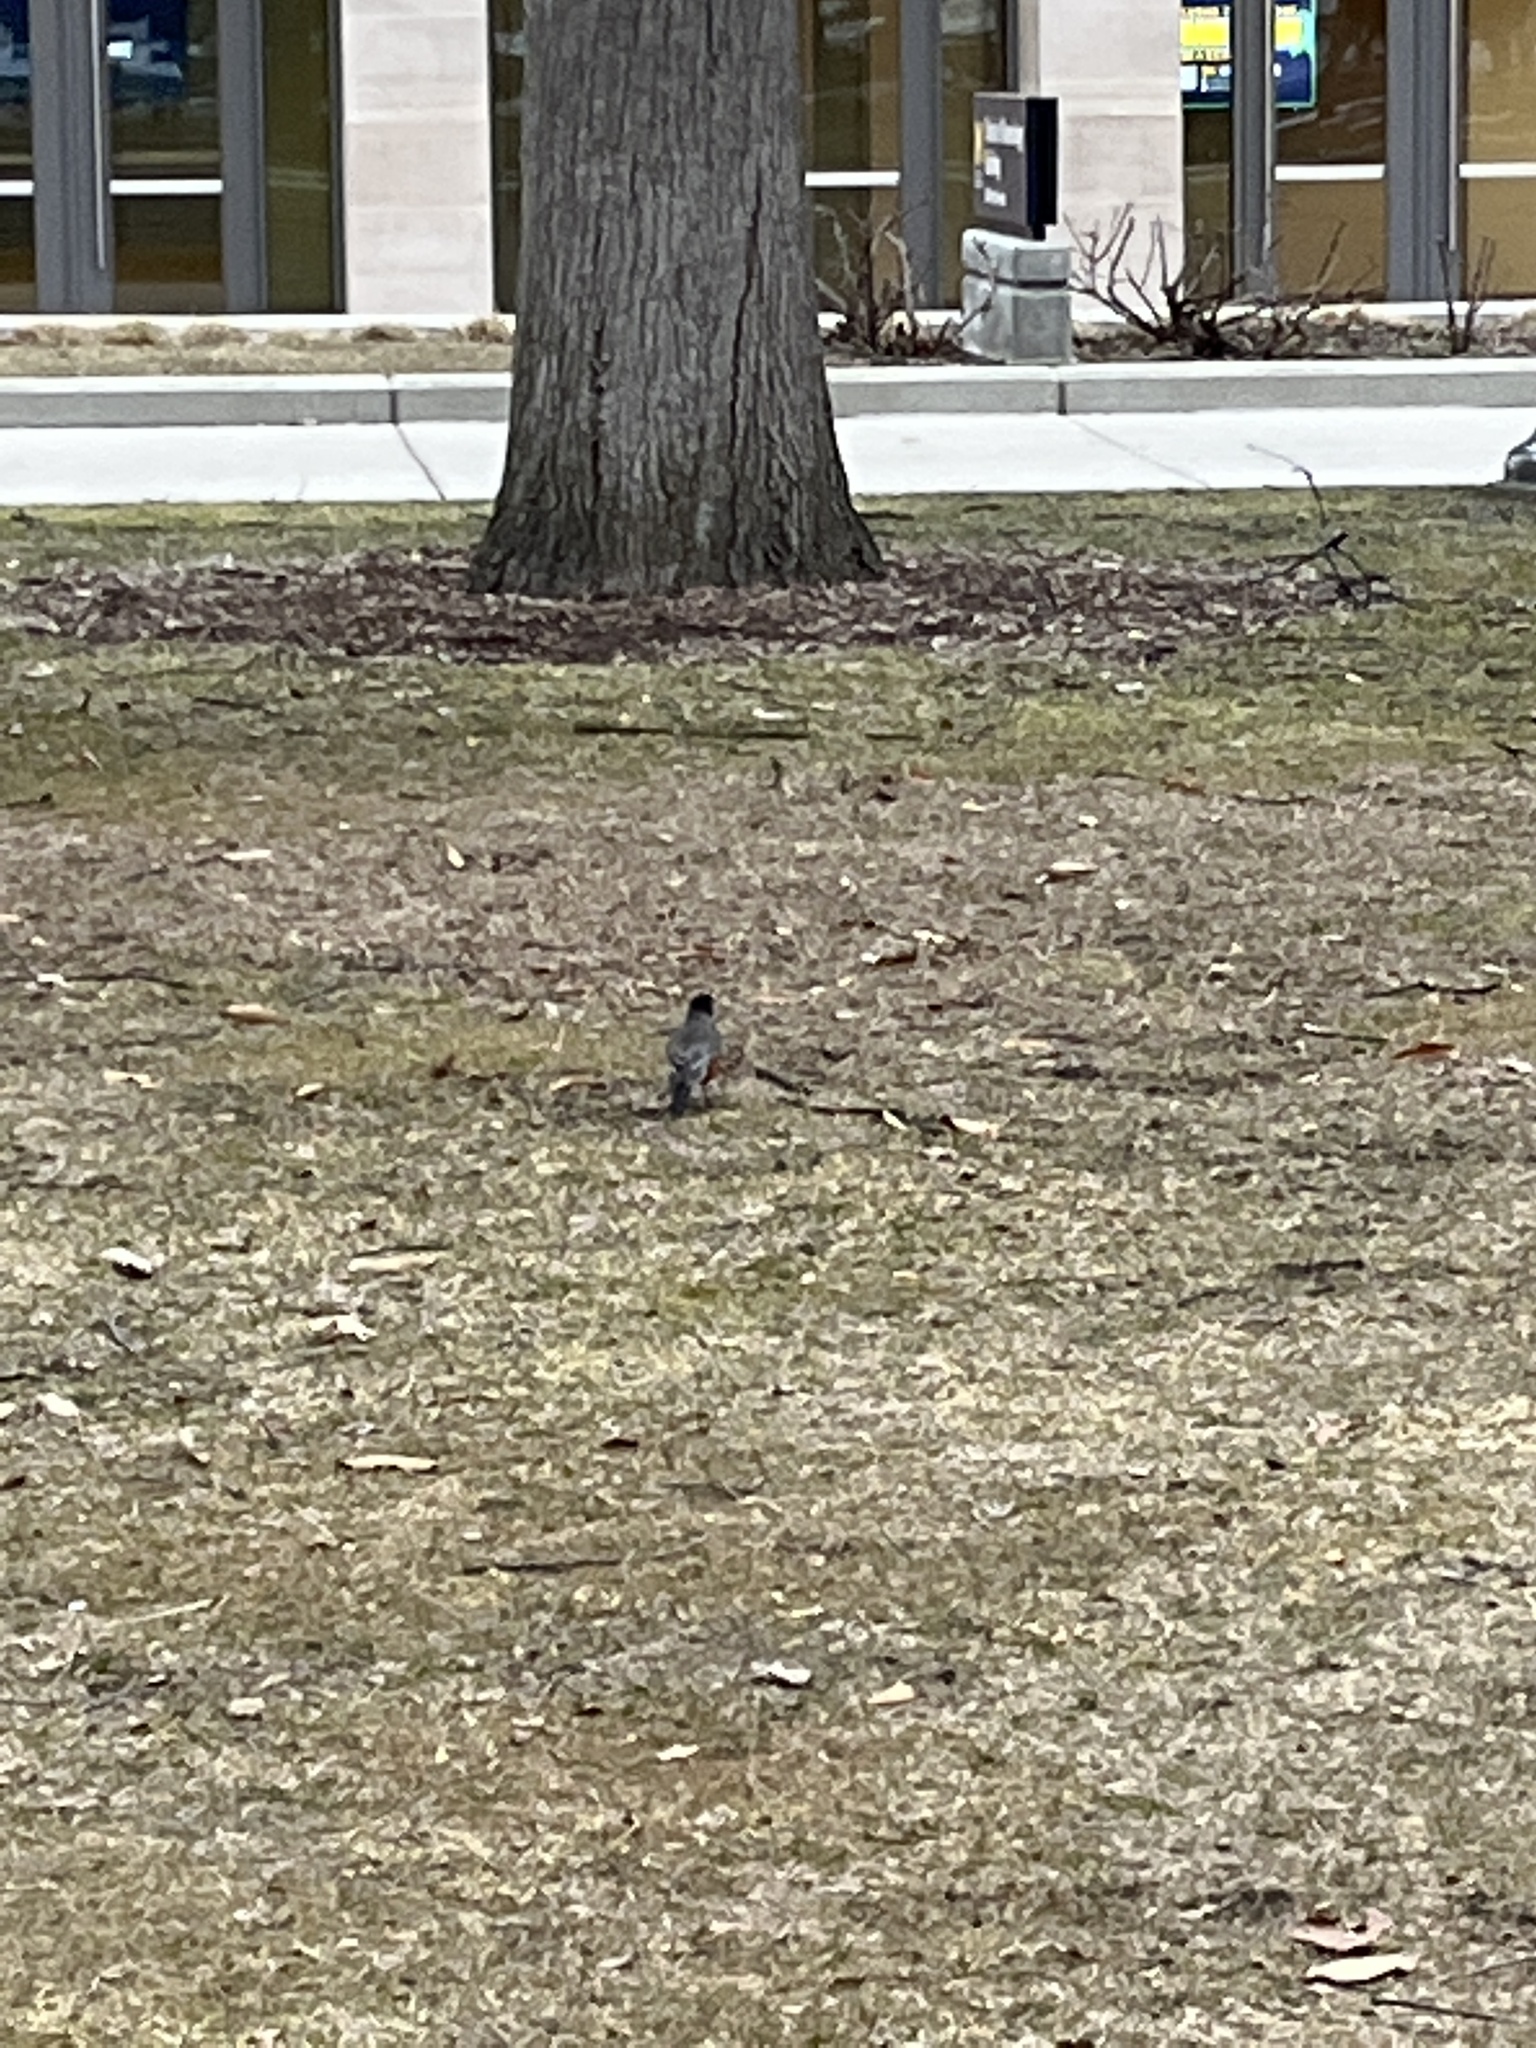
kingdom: Animalia
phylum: Chordata
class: Aves
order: Passeriformes
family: Turdidae
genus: Turdus
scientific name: Turdus migratorius
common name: American robin
